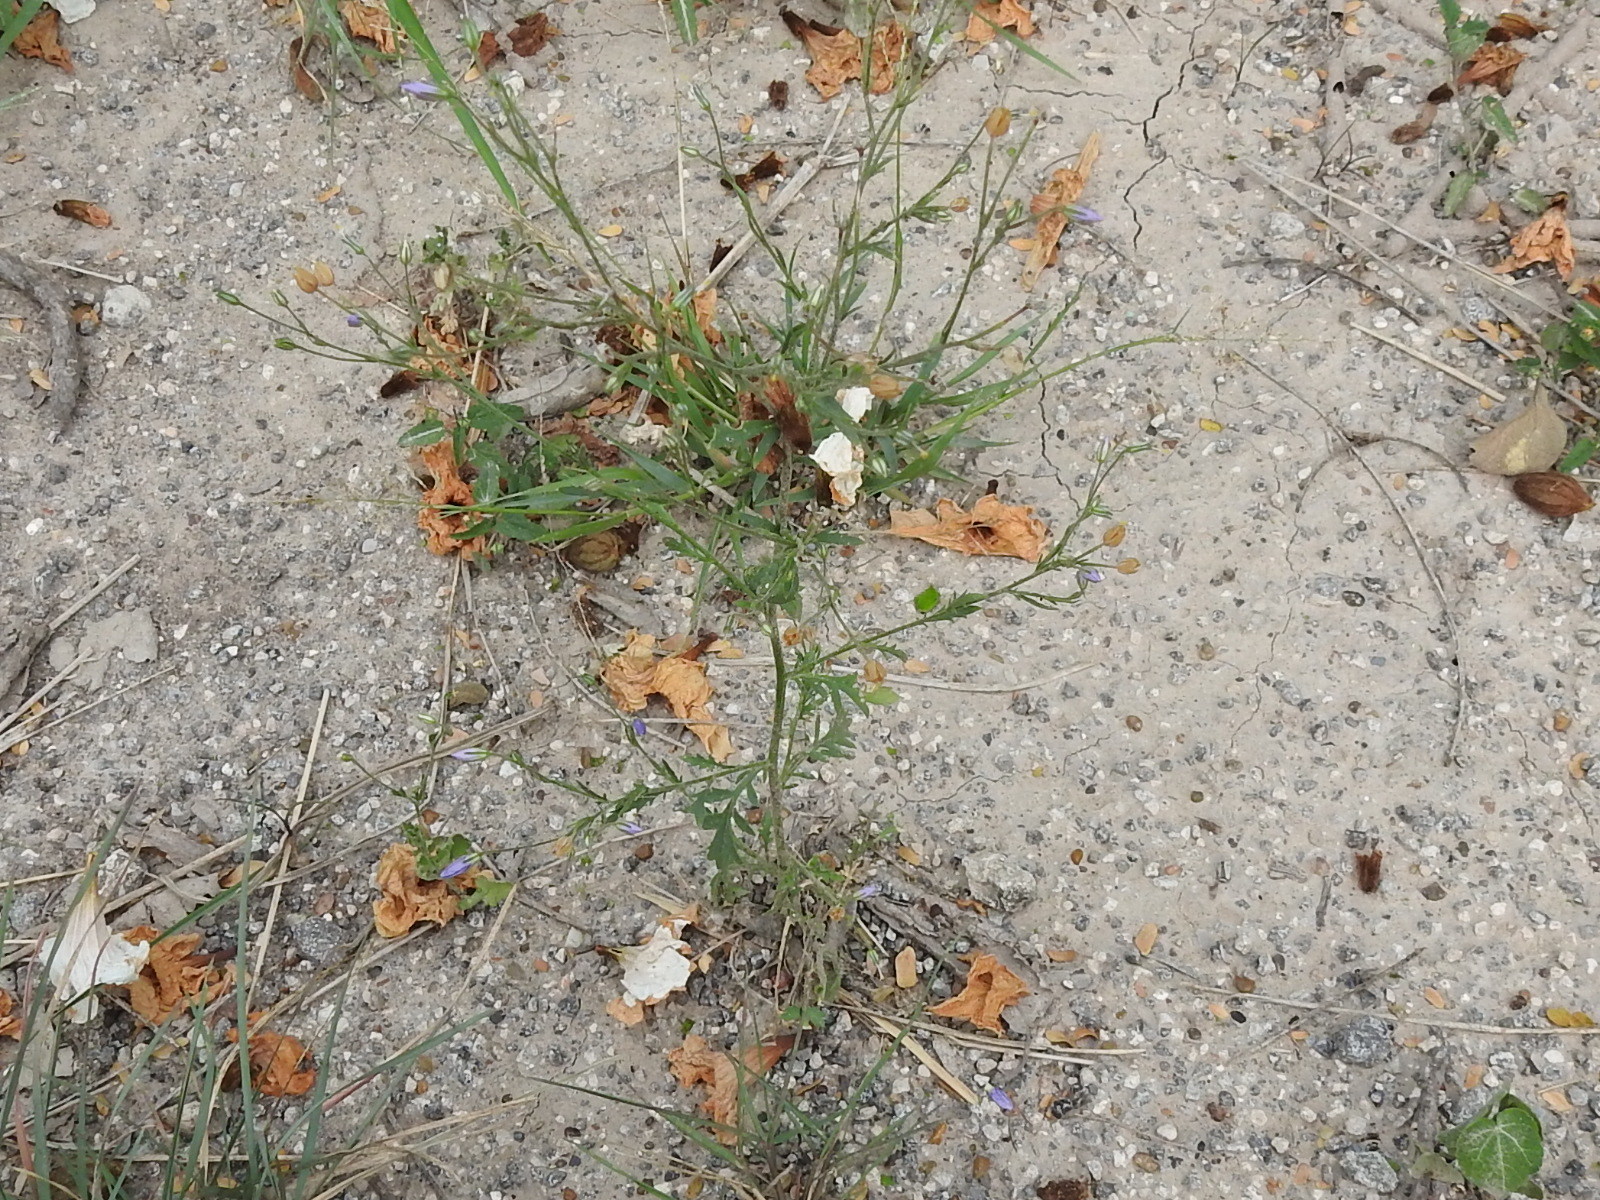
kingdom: Plantae
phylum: Tracheophyta
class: Magnoliopsida
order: Ericales
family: Polemoniaceae
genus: Giliastrum
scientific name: Giliastrum incisum
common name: Splitleaf gilia
